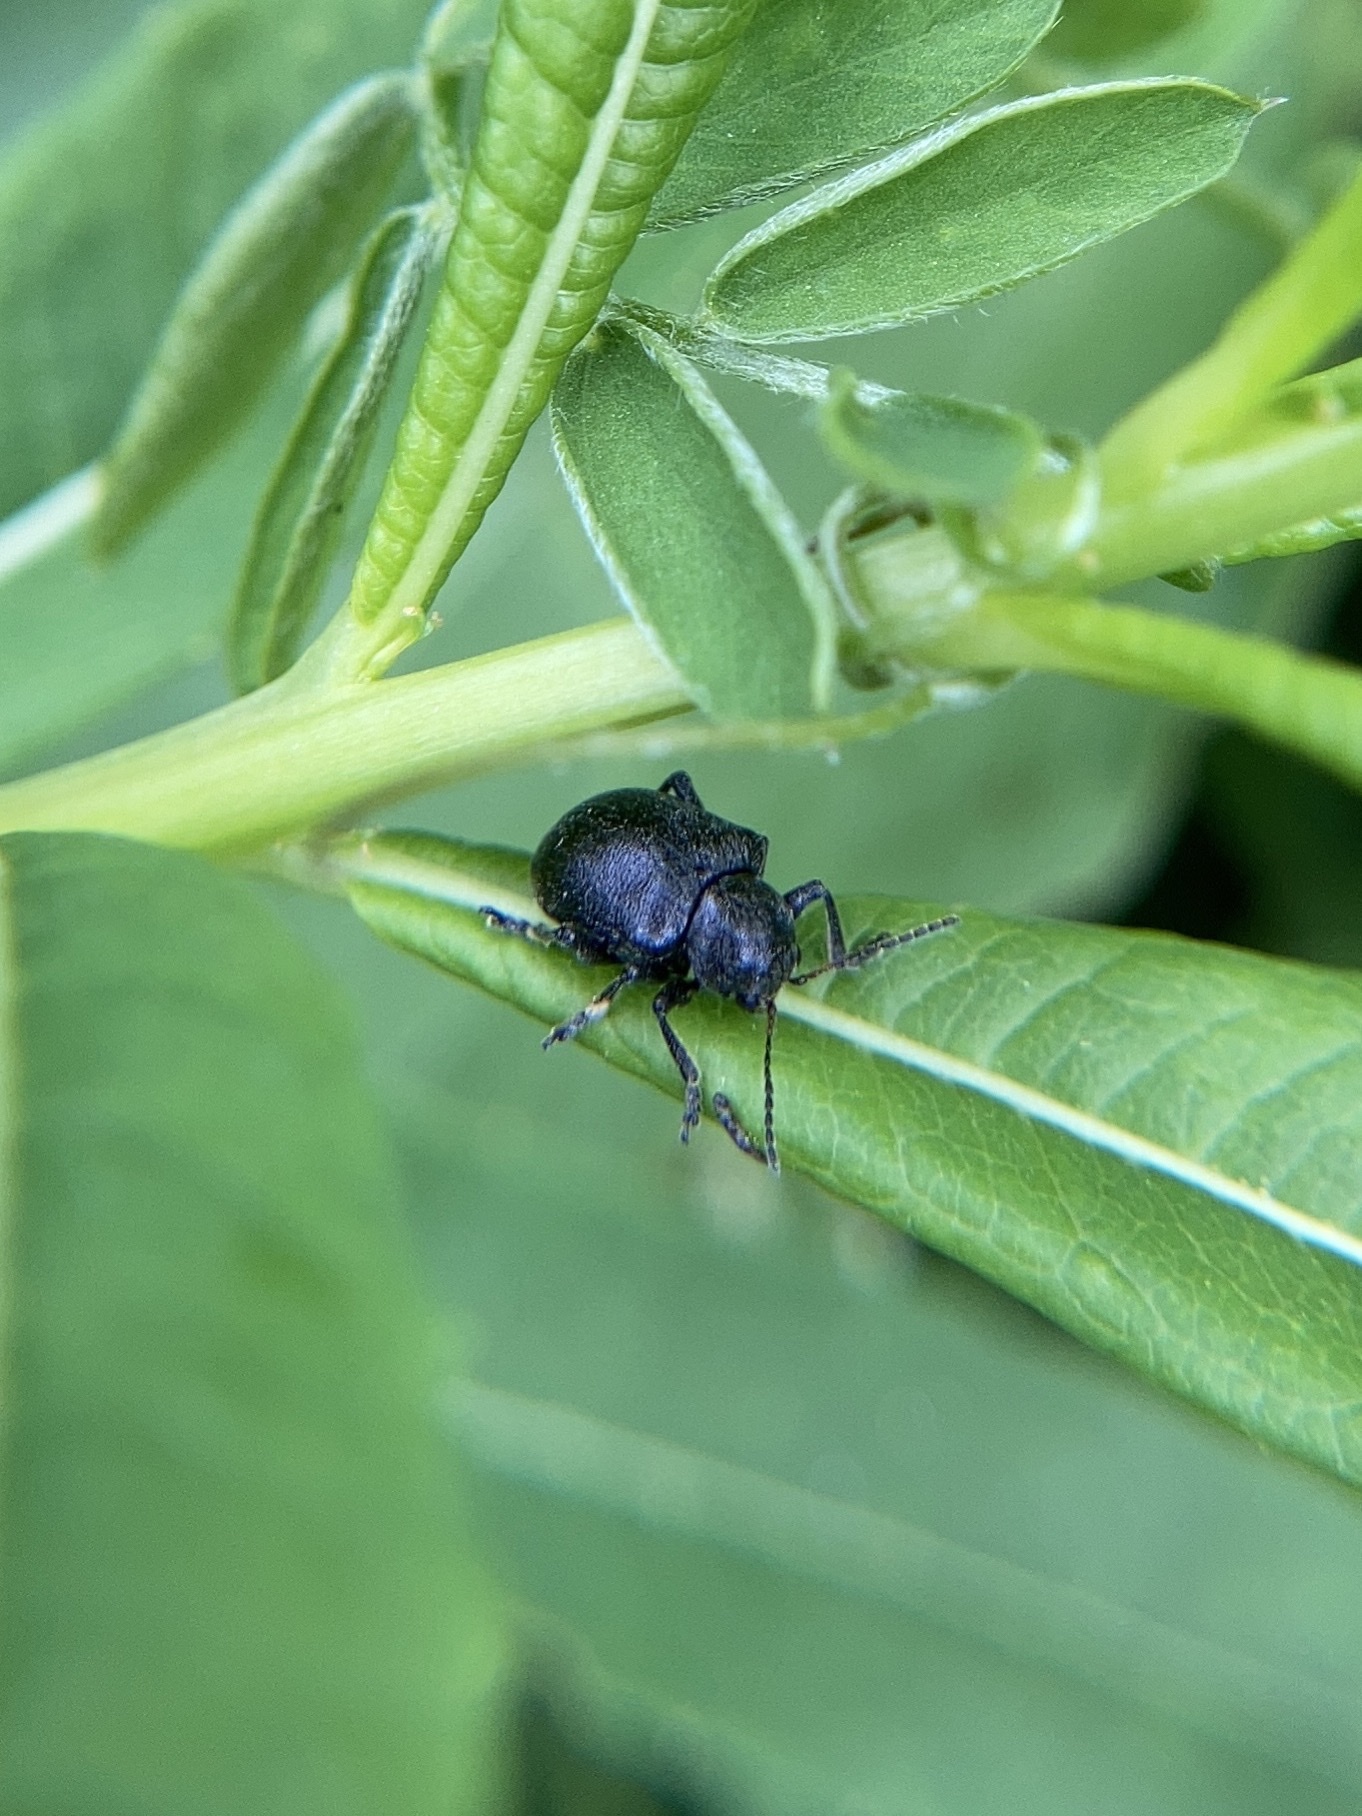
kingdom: Animalia
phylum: Arthropoda
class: Insecta
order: Coleoptera
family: Chrysomelidae
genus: Bromius
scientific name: Bromius obscurus
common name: Western grape rootworm
